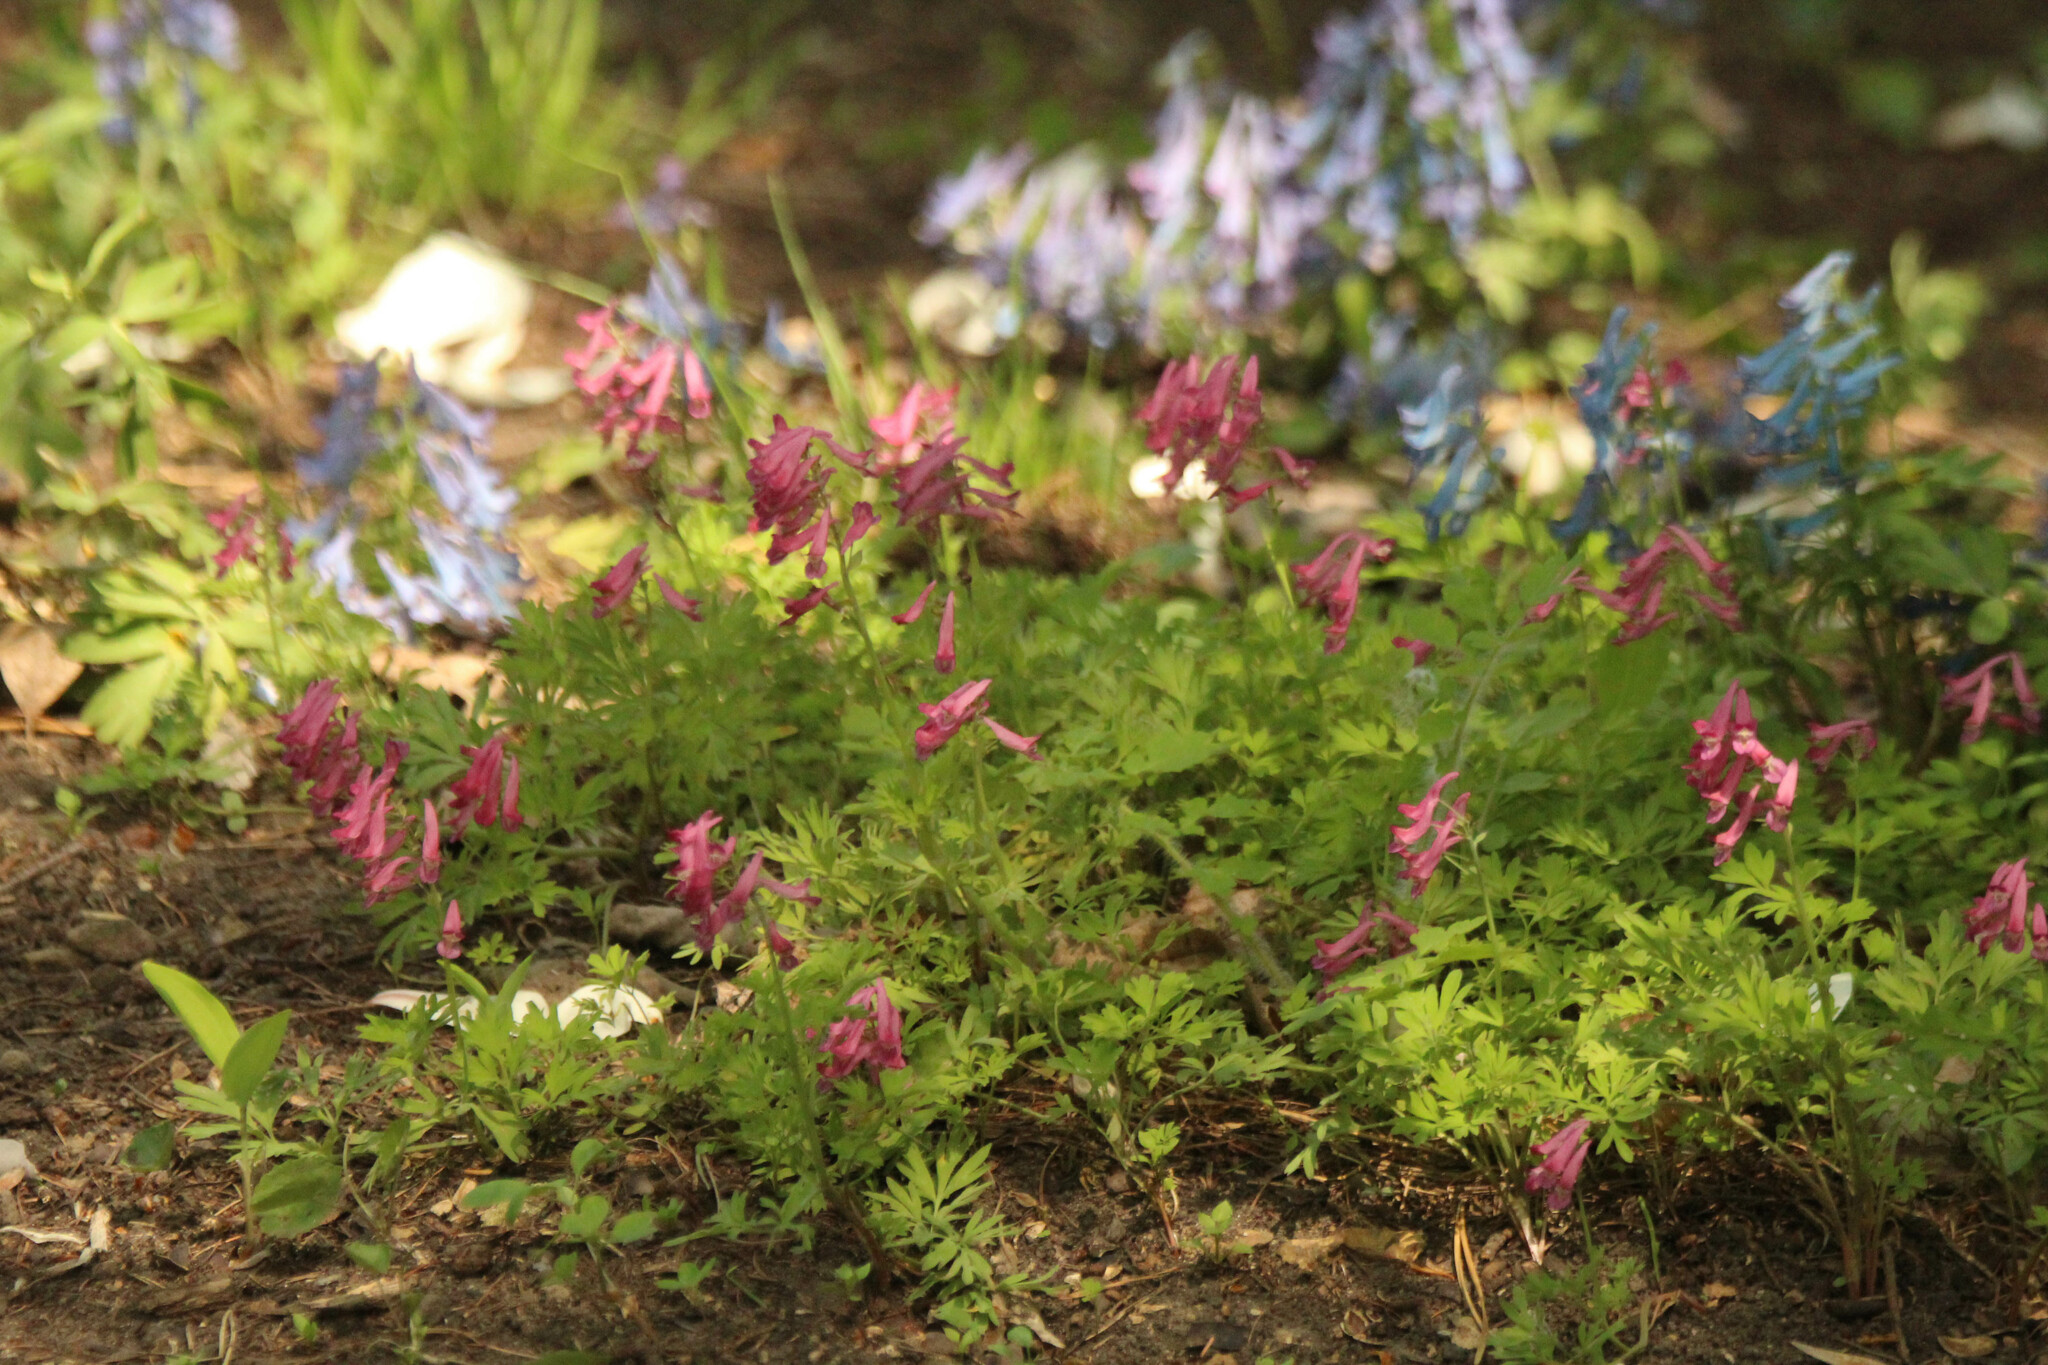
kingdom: Plantae
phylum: Tracheophyta
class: Magnoliopsida
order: Ranunculales
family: Papaveraceae
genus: Corydalis
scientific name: Corydalis buschii
